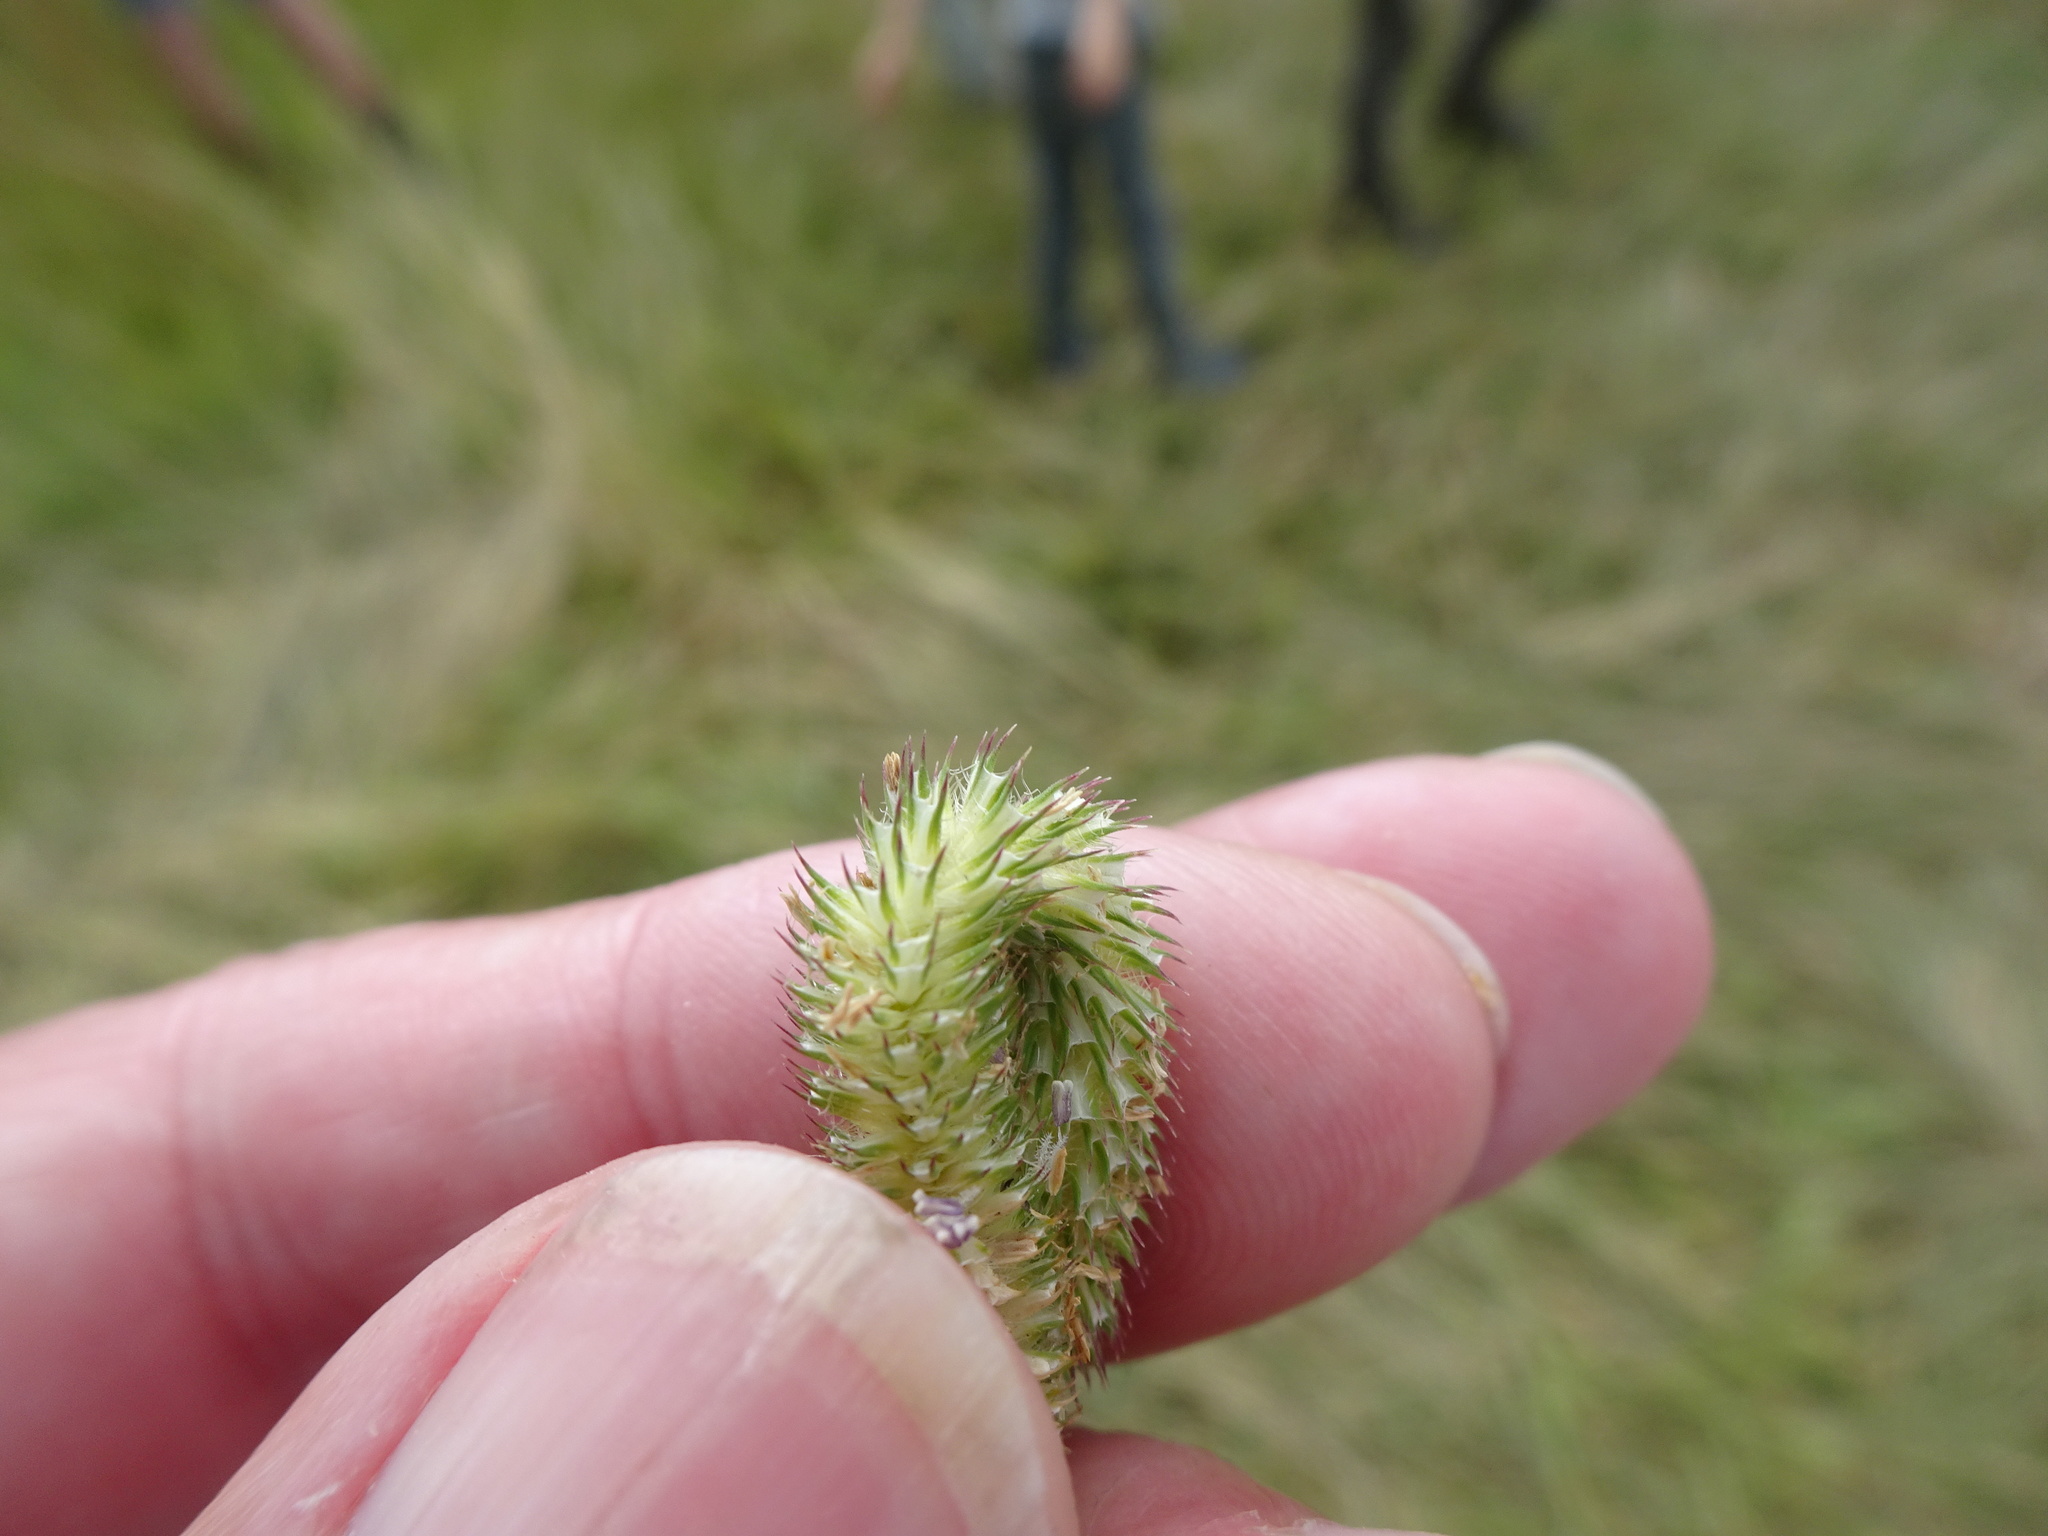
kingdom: Plantae
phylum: Tracheophyta
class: Liliopsida
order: Poales
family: Poaceae
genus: Phleum
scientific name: Phleum pratense
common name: Timothy grass
